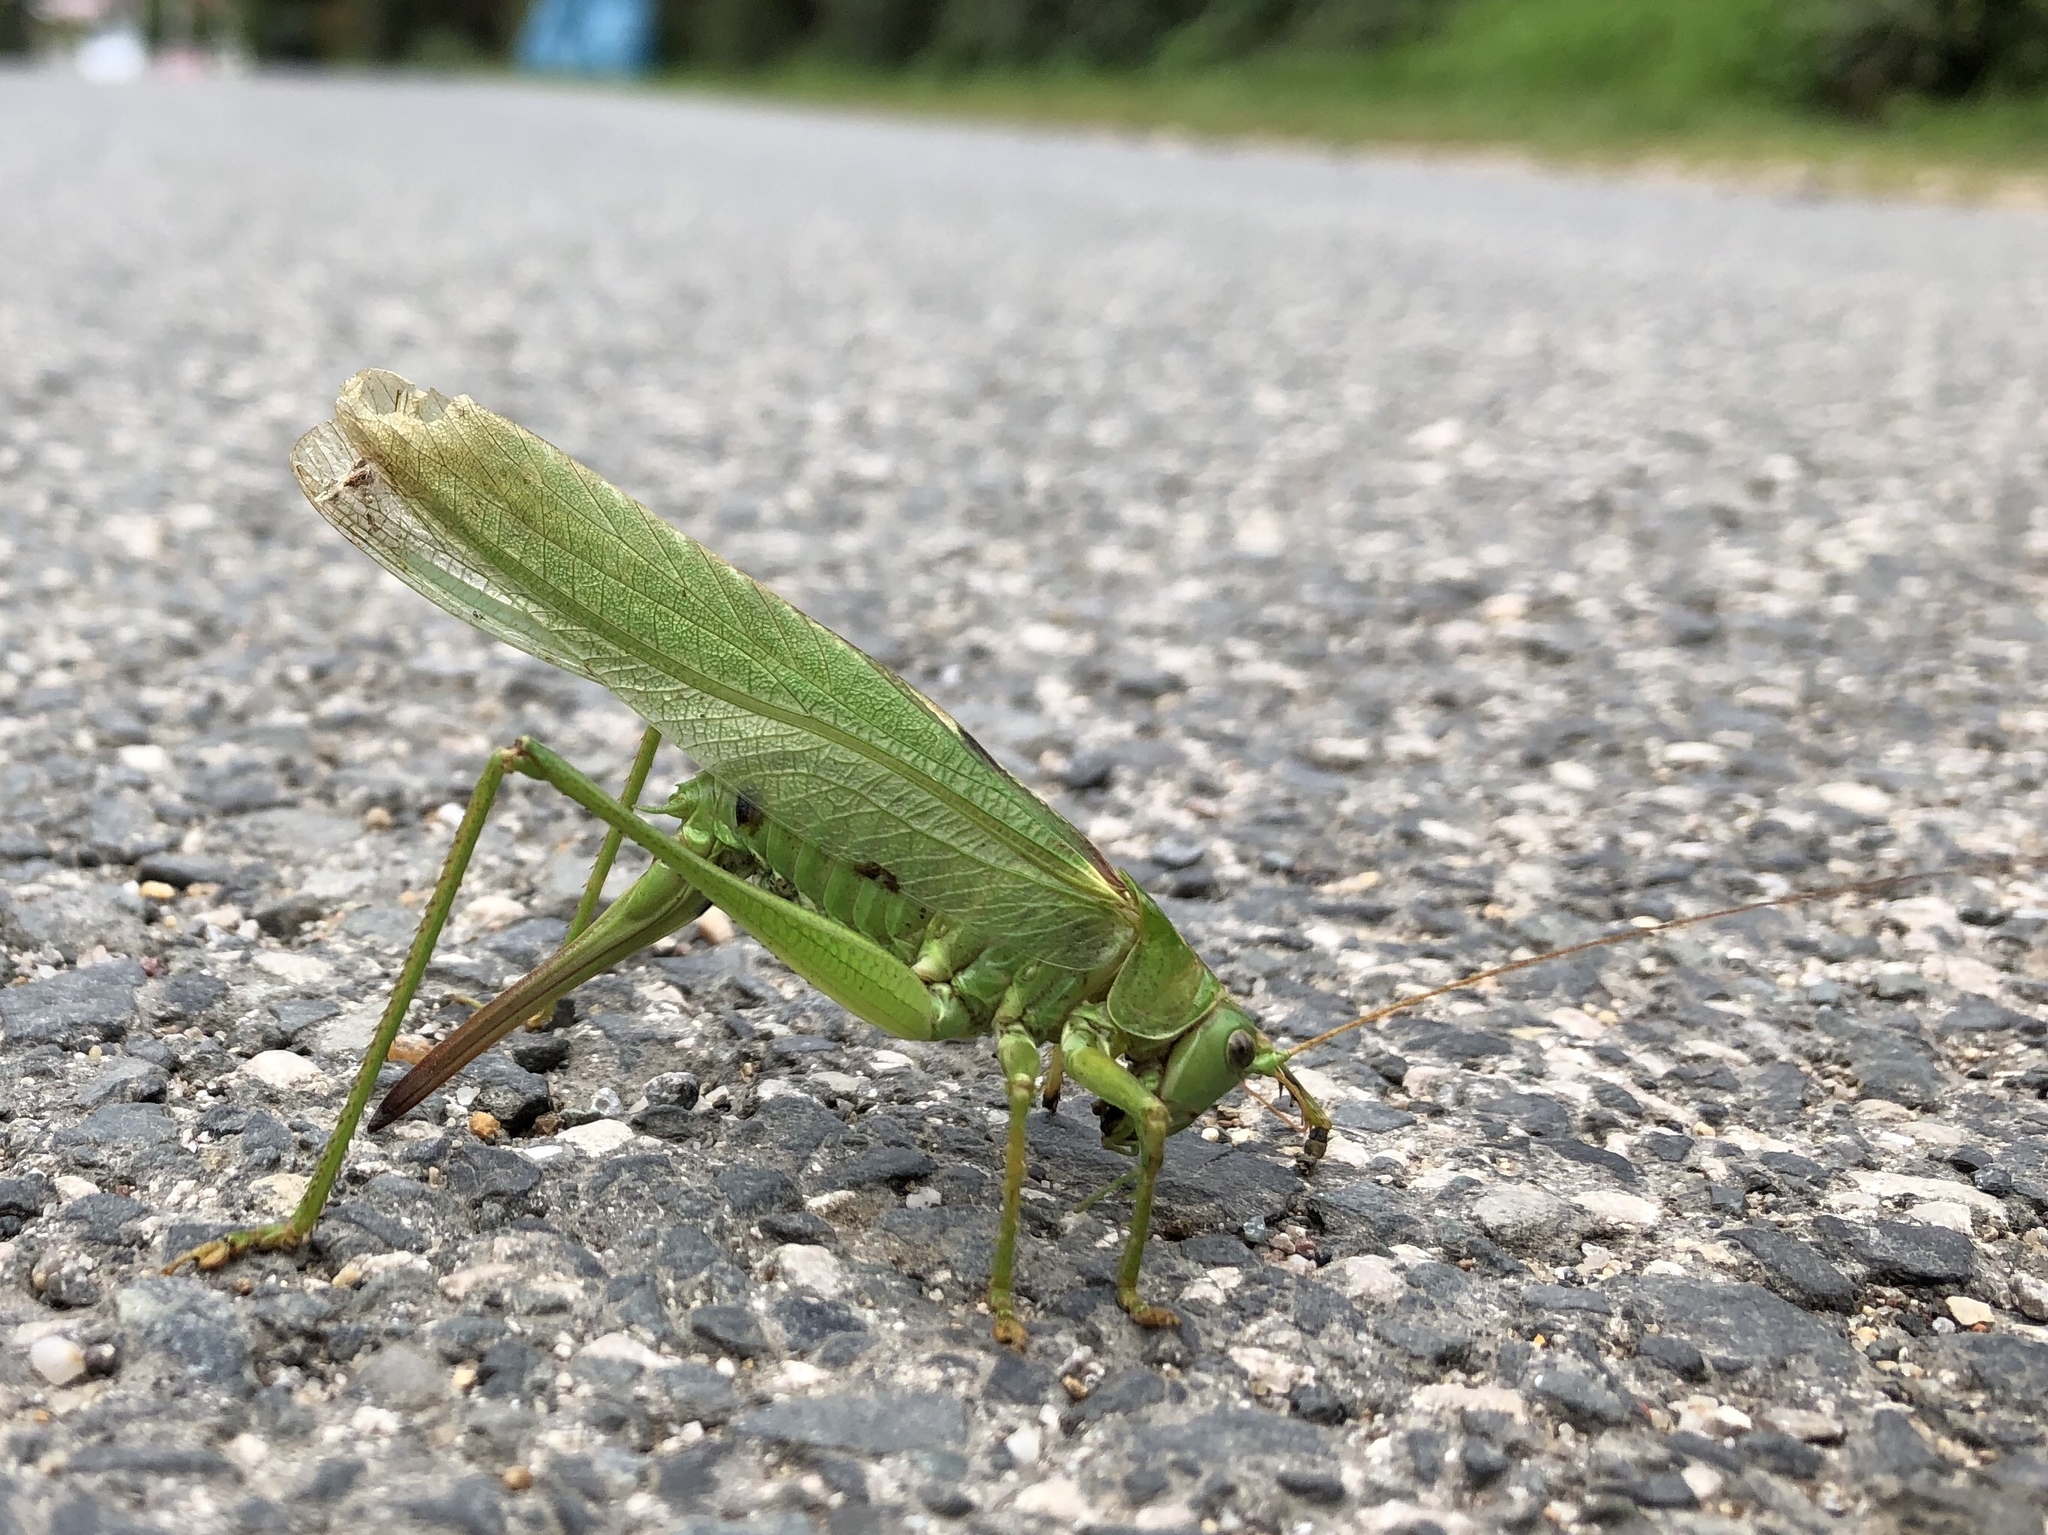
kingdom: Animalia
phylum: Arthropoda
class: Insecta
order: Orthoptera
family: Tettigoniidae
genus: Tettigonia
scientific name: Tettigonia viridissima
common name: Great green bush-cricket
